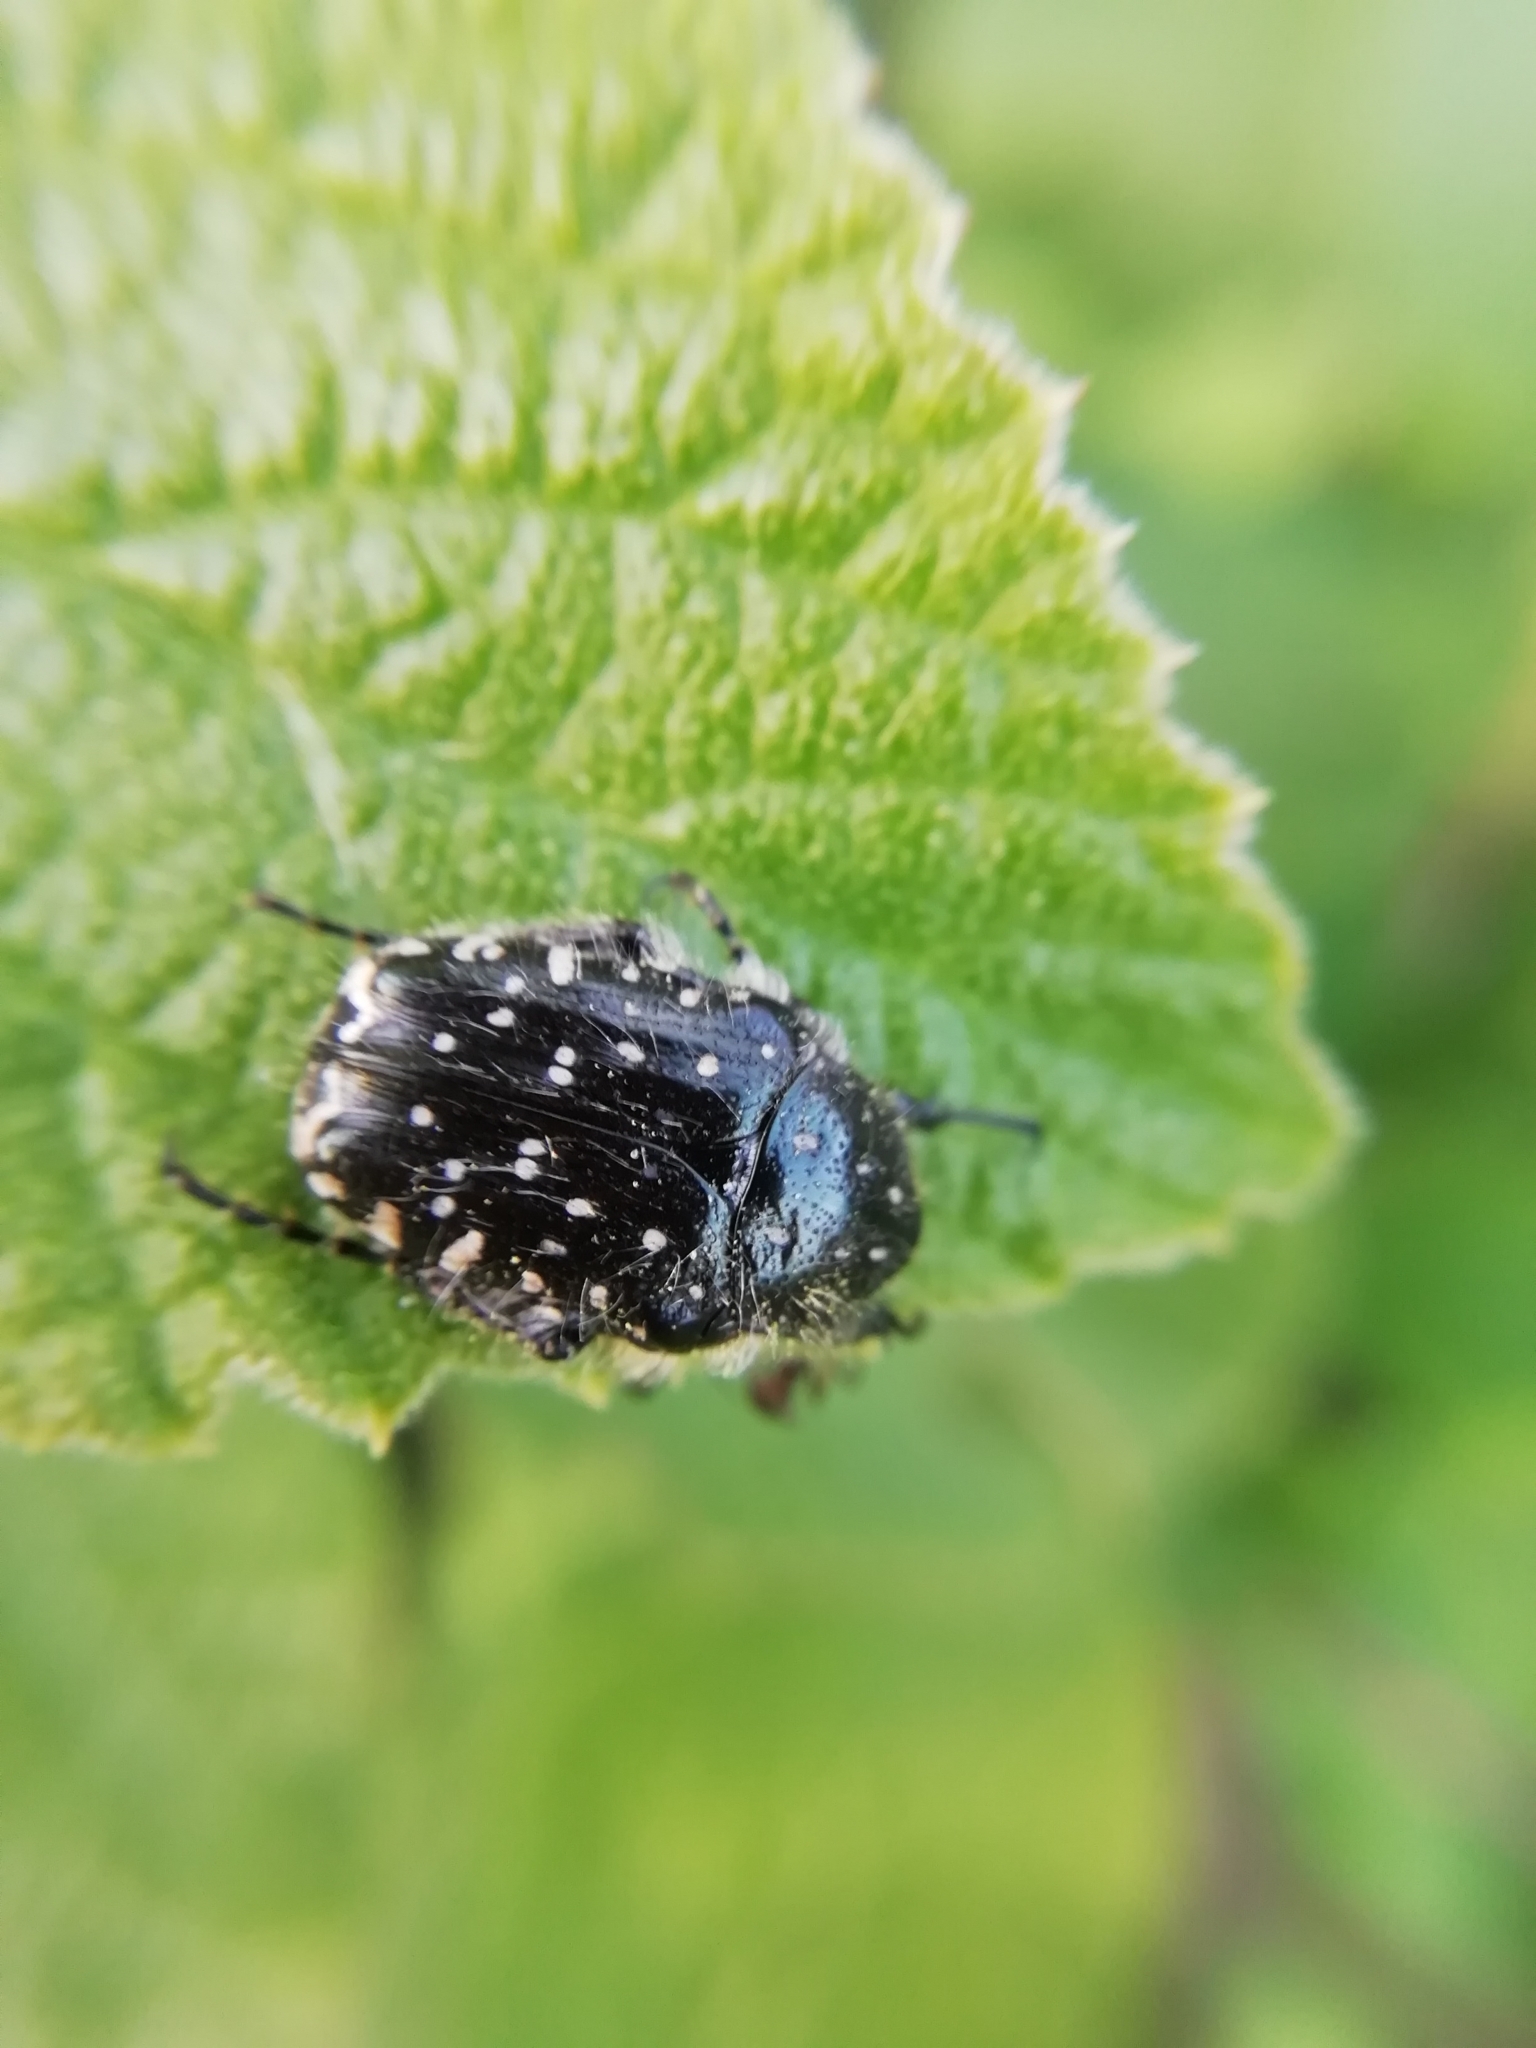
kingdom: Animalia
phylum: Arthropoda
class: Insecta
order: Coleoptera
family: Scarabaeidae
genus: Oxythyrea
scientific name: Oxythyrea funesta
